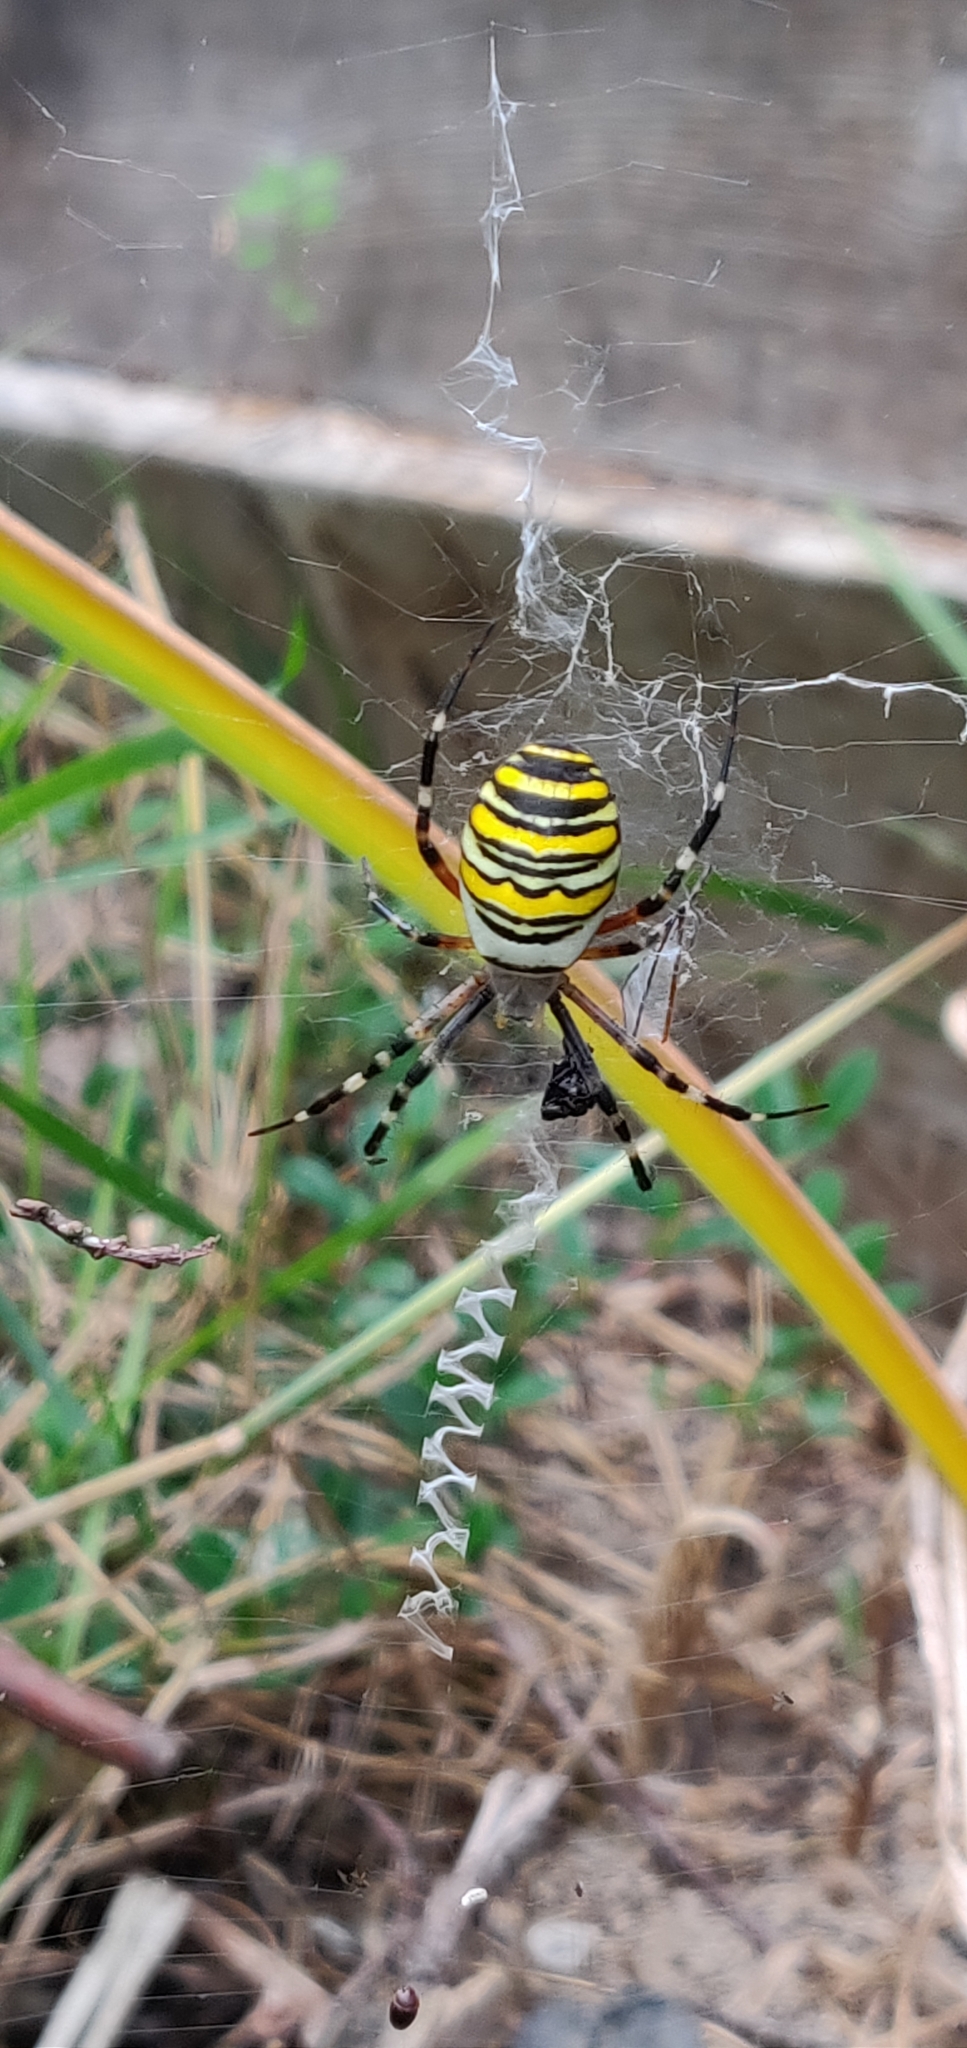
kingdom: Animalia
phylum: Arthropoda
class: Arachnida
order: Araneae
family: Araneidae
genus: Argiope
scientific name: Argiope bruennichi
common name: Wasp spider
